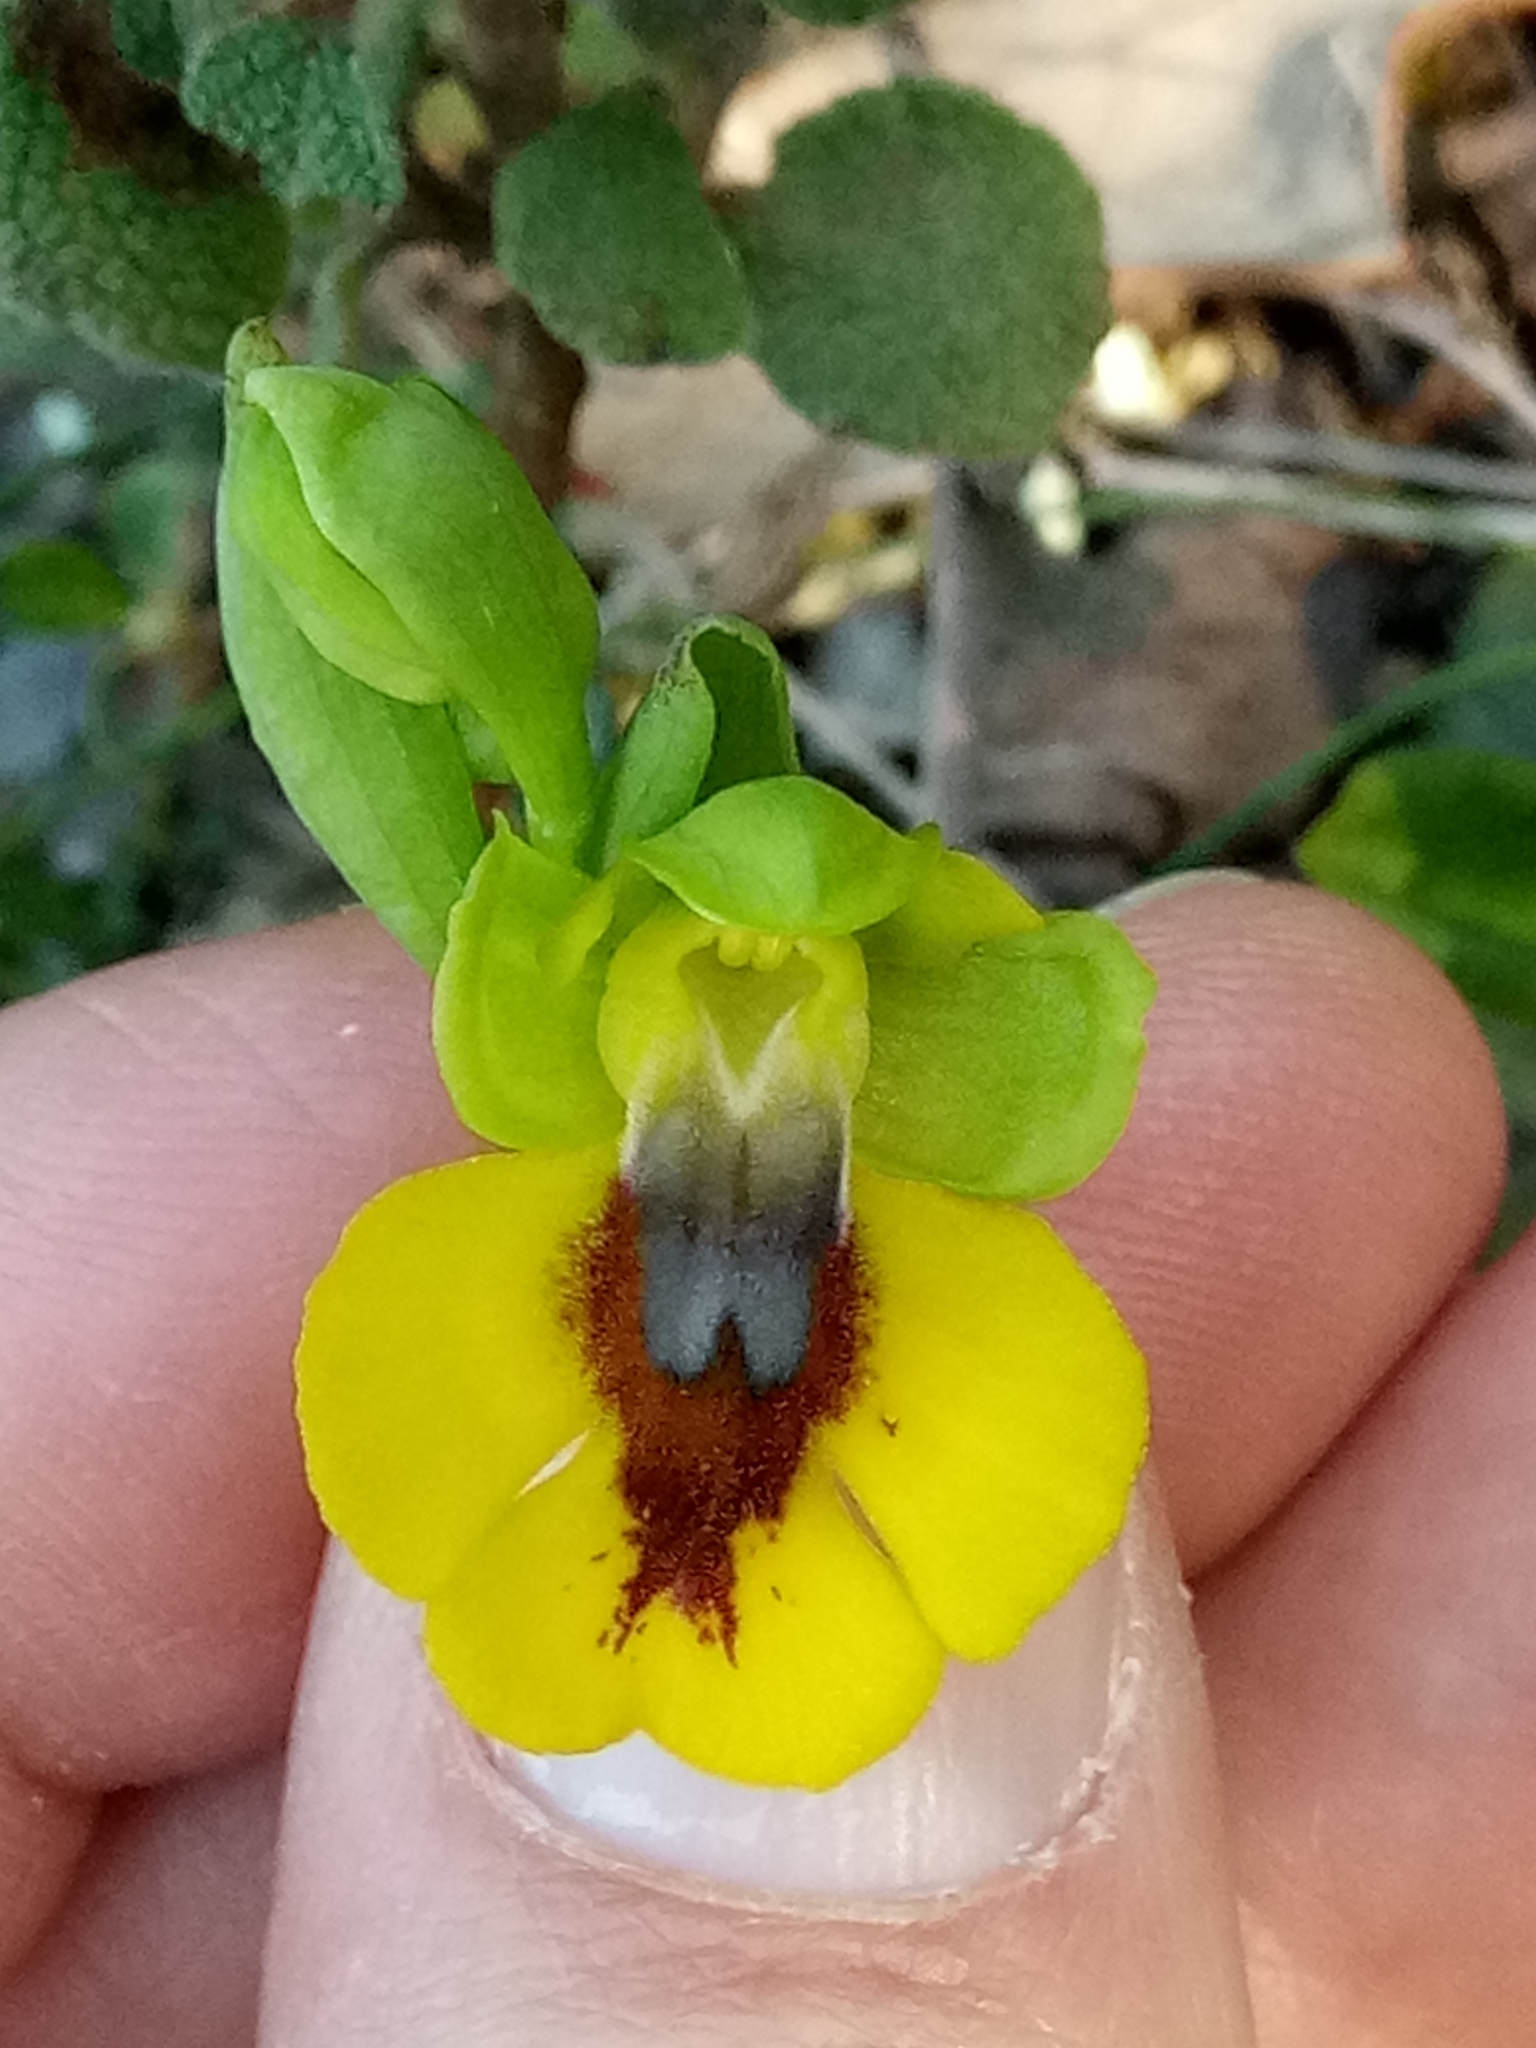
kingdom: Plantae
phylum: Tracheophyta
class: Liliopsida
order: Asparagales
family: Orchidaceae
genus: Ophrys
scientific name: Ophrys lutea
